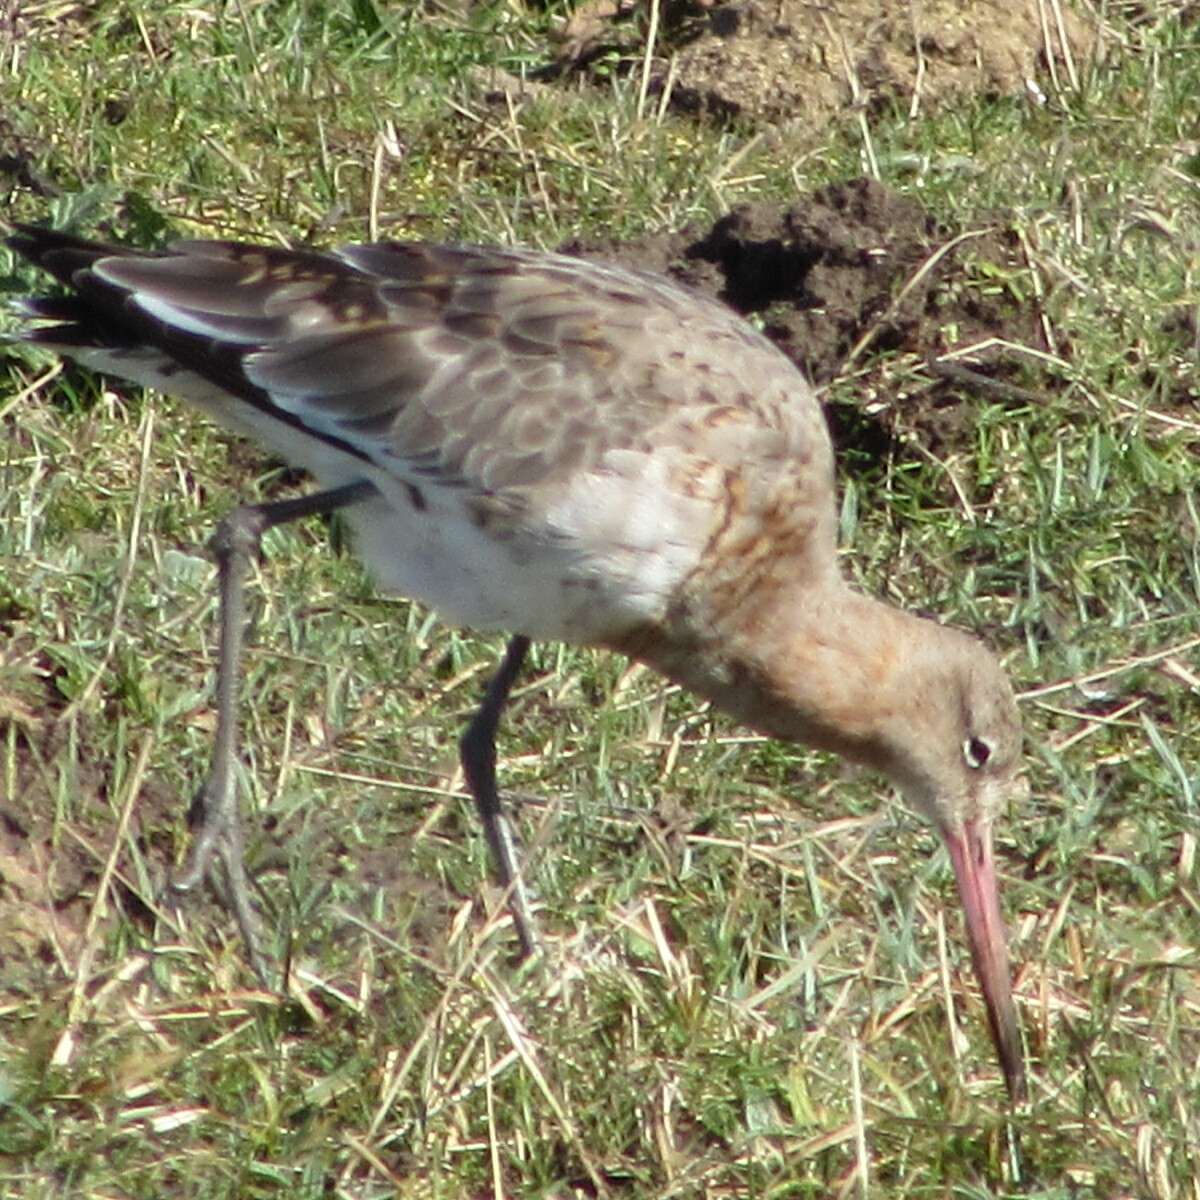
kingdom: Animalia
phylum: Chordata
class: Aves
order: Charadriiformes
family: Scolopacidae
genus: Limosa
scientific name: Limosa limosa
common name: Black-tailed godwit
